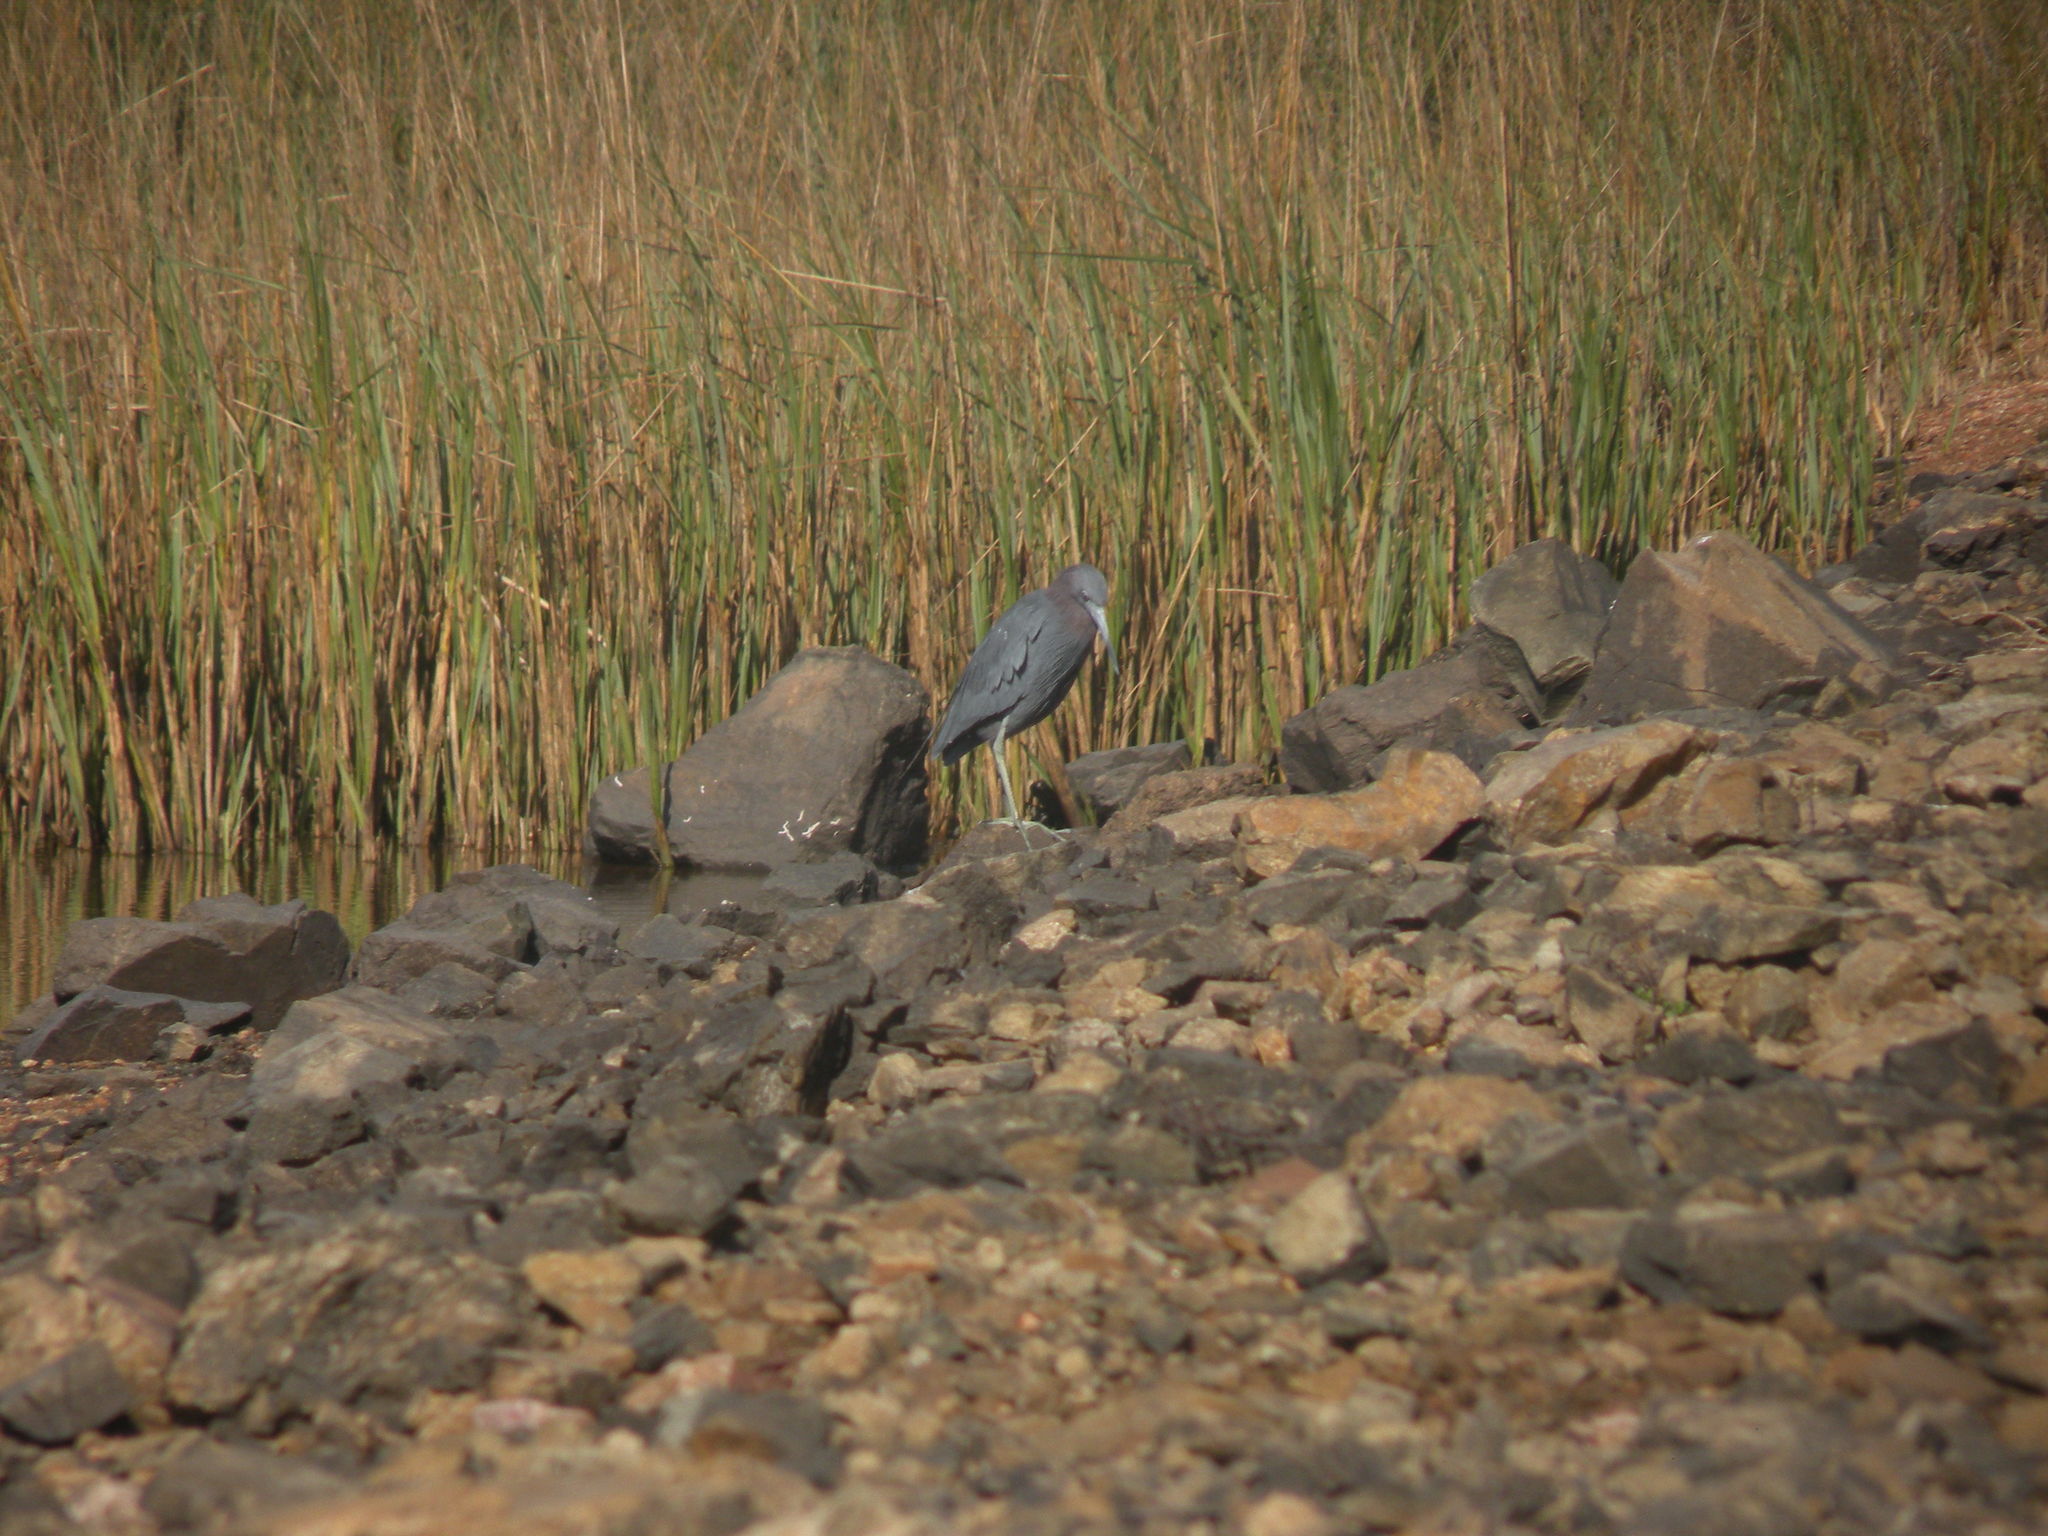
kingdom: Animalia
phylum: Chordata
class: Aves
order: Pelecaniformes
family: Ardeidae
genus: Egretta
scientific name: Egretta caerulea
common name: Little blue heron
